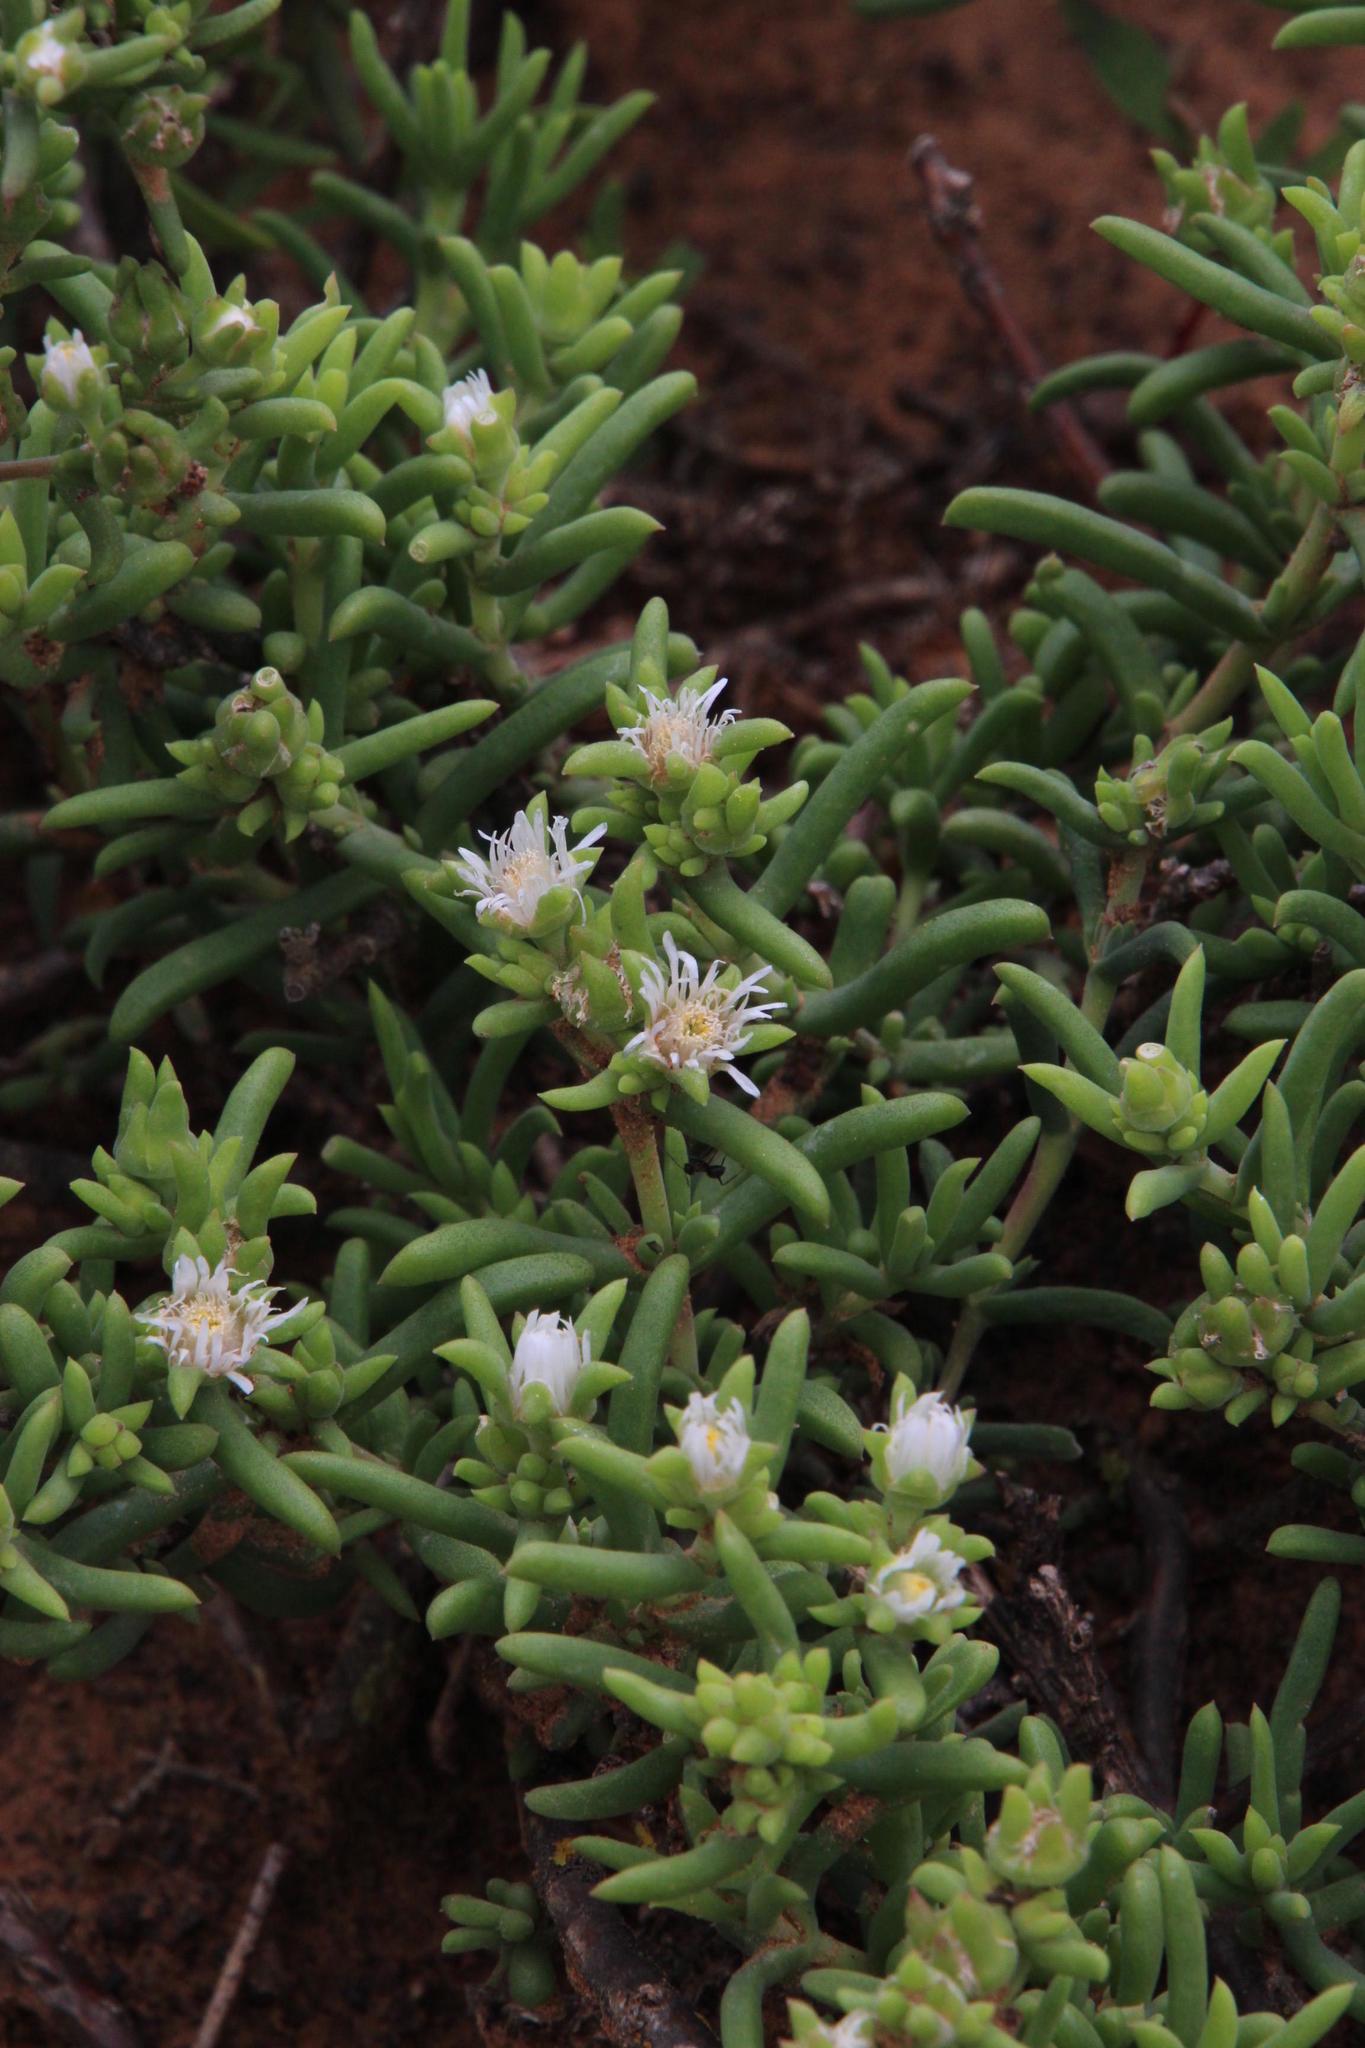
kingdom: Plantae
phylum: Tracheophyta
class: Magnoliopsida
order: Caryophyllales
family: Aizoaceae
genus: Delosperma
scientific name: Delosperma frutescens
